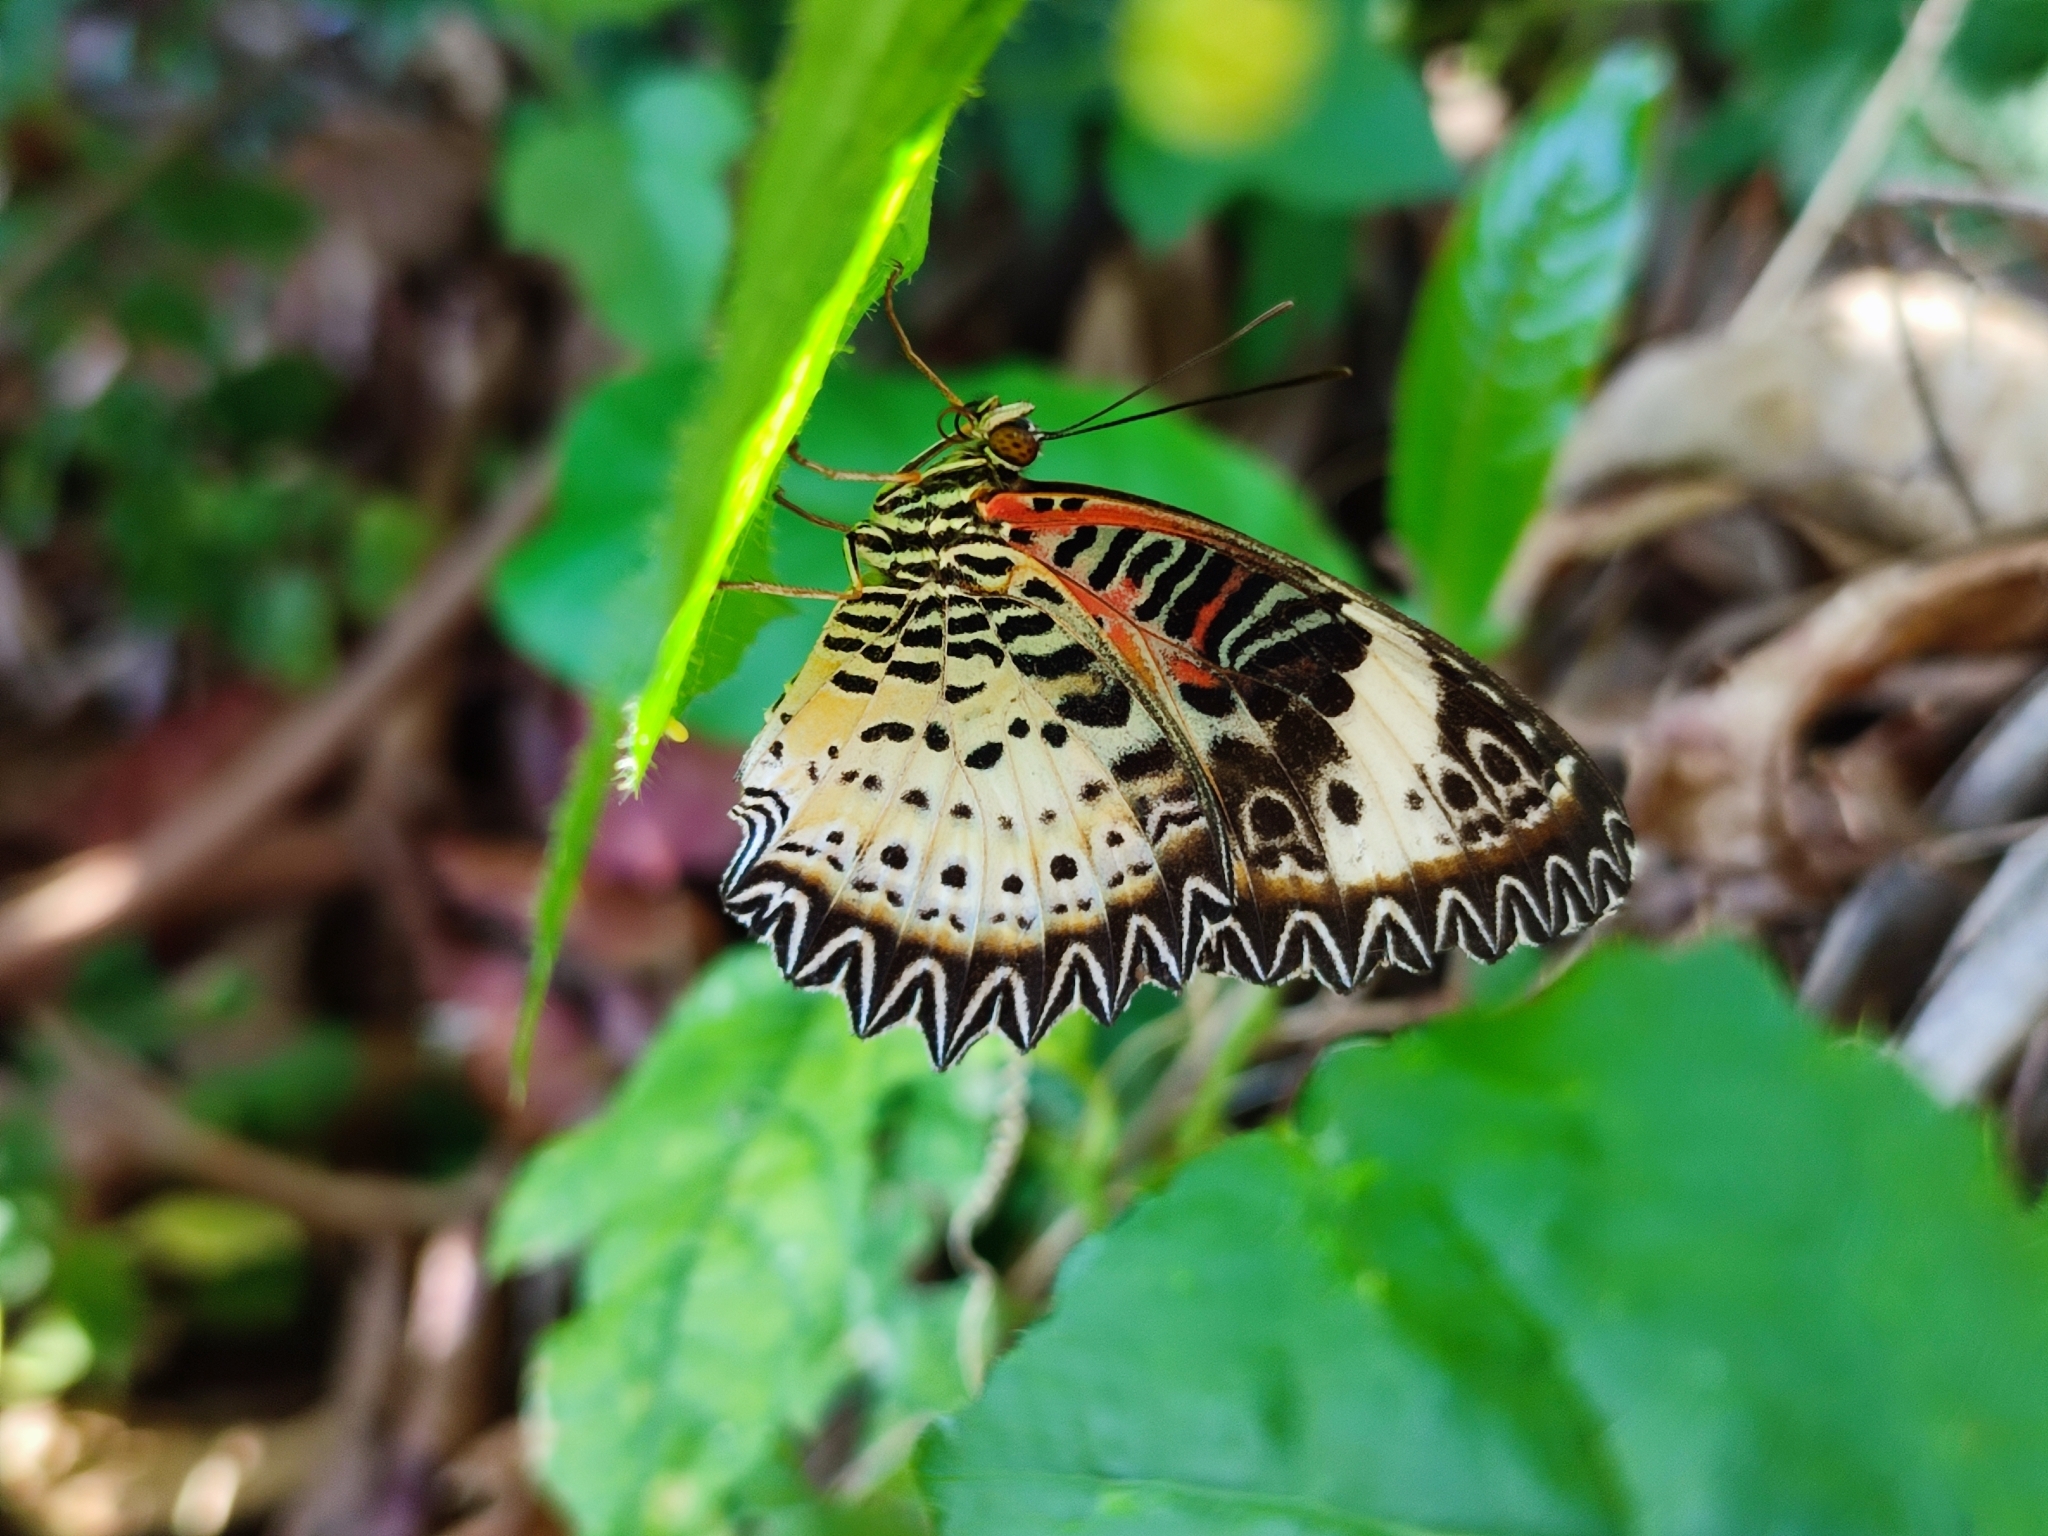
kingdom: Animalia
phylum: Arthropoda
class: Insecta
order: Lepidoptera
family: Nymphalidae
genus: Cethosia
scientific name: Cethosia cyane
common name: Leopard lacewing butterfly
